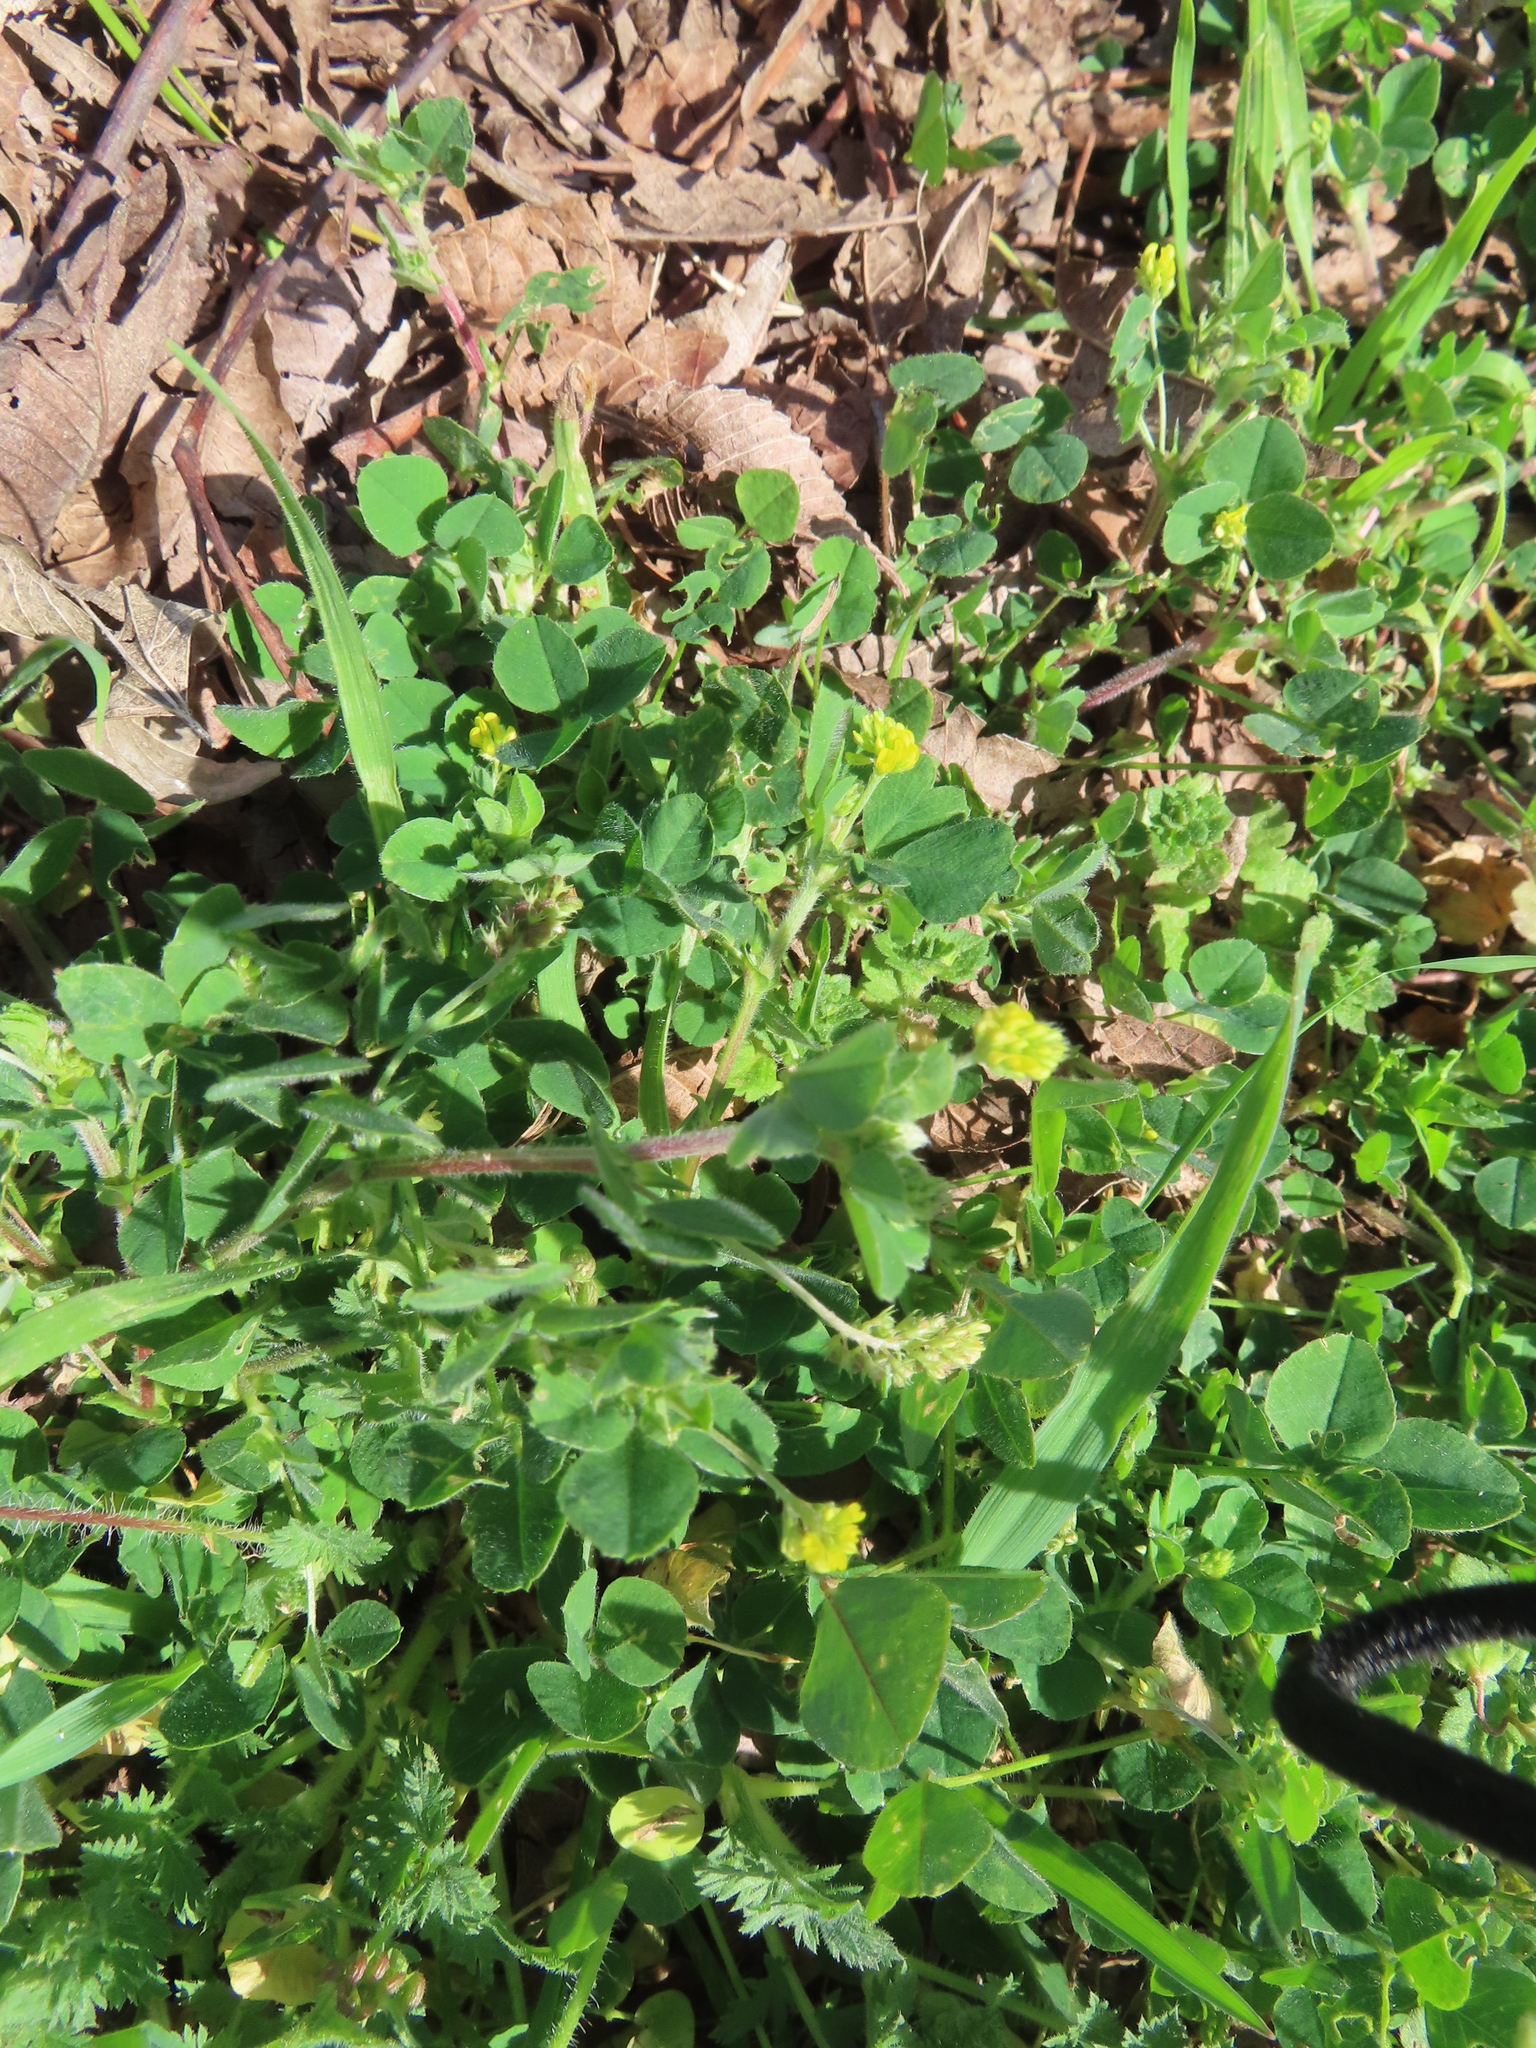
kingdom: Plantae
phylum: Tracheophyta
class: Magnoliopsida
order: Fabales
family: Fabaceae
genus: Medicago
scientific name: Medicago lupulina
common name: Black medick
